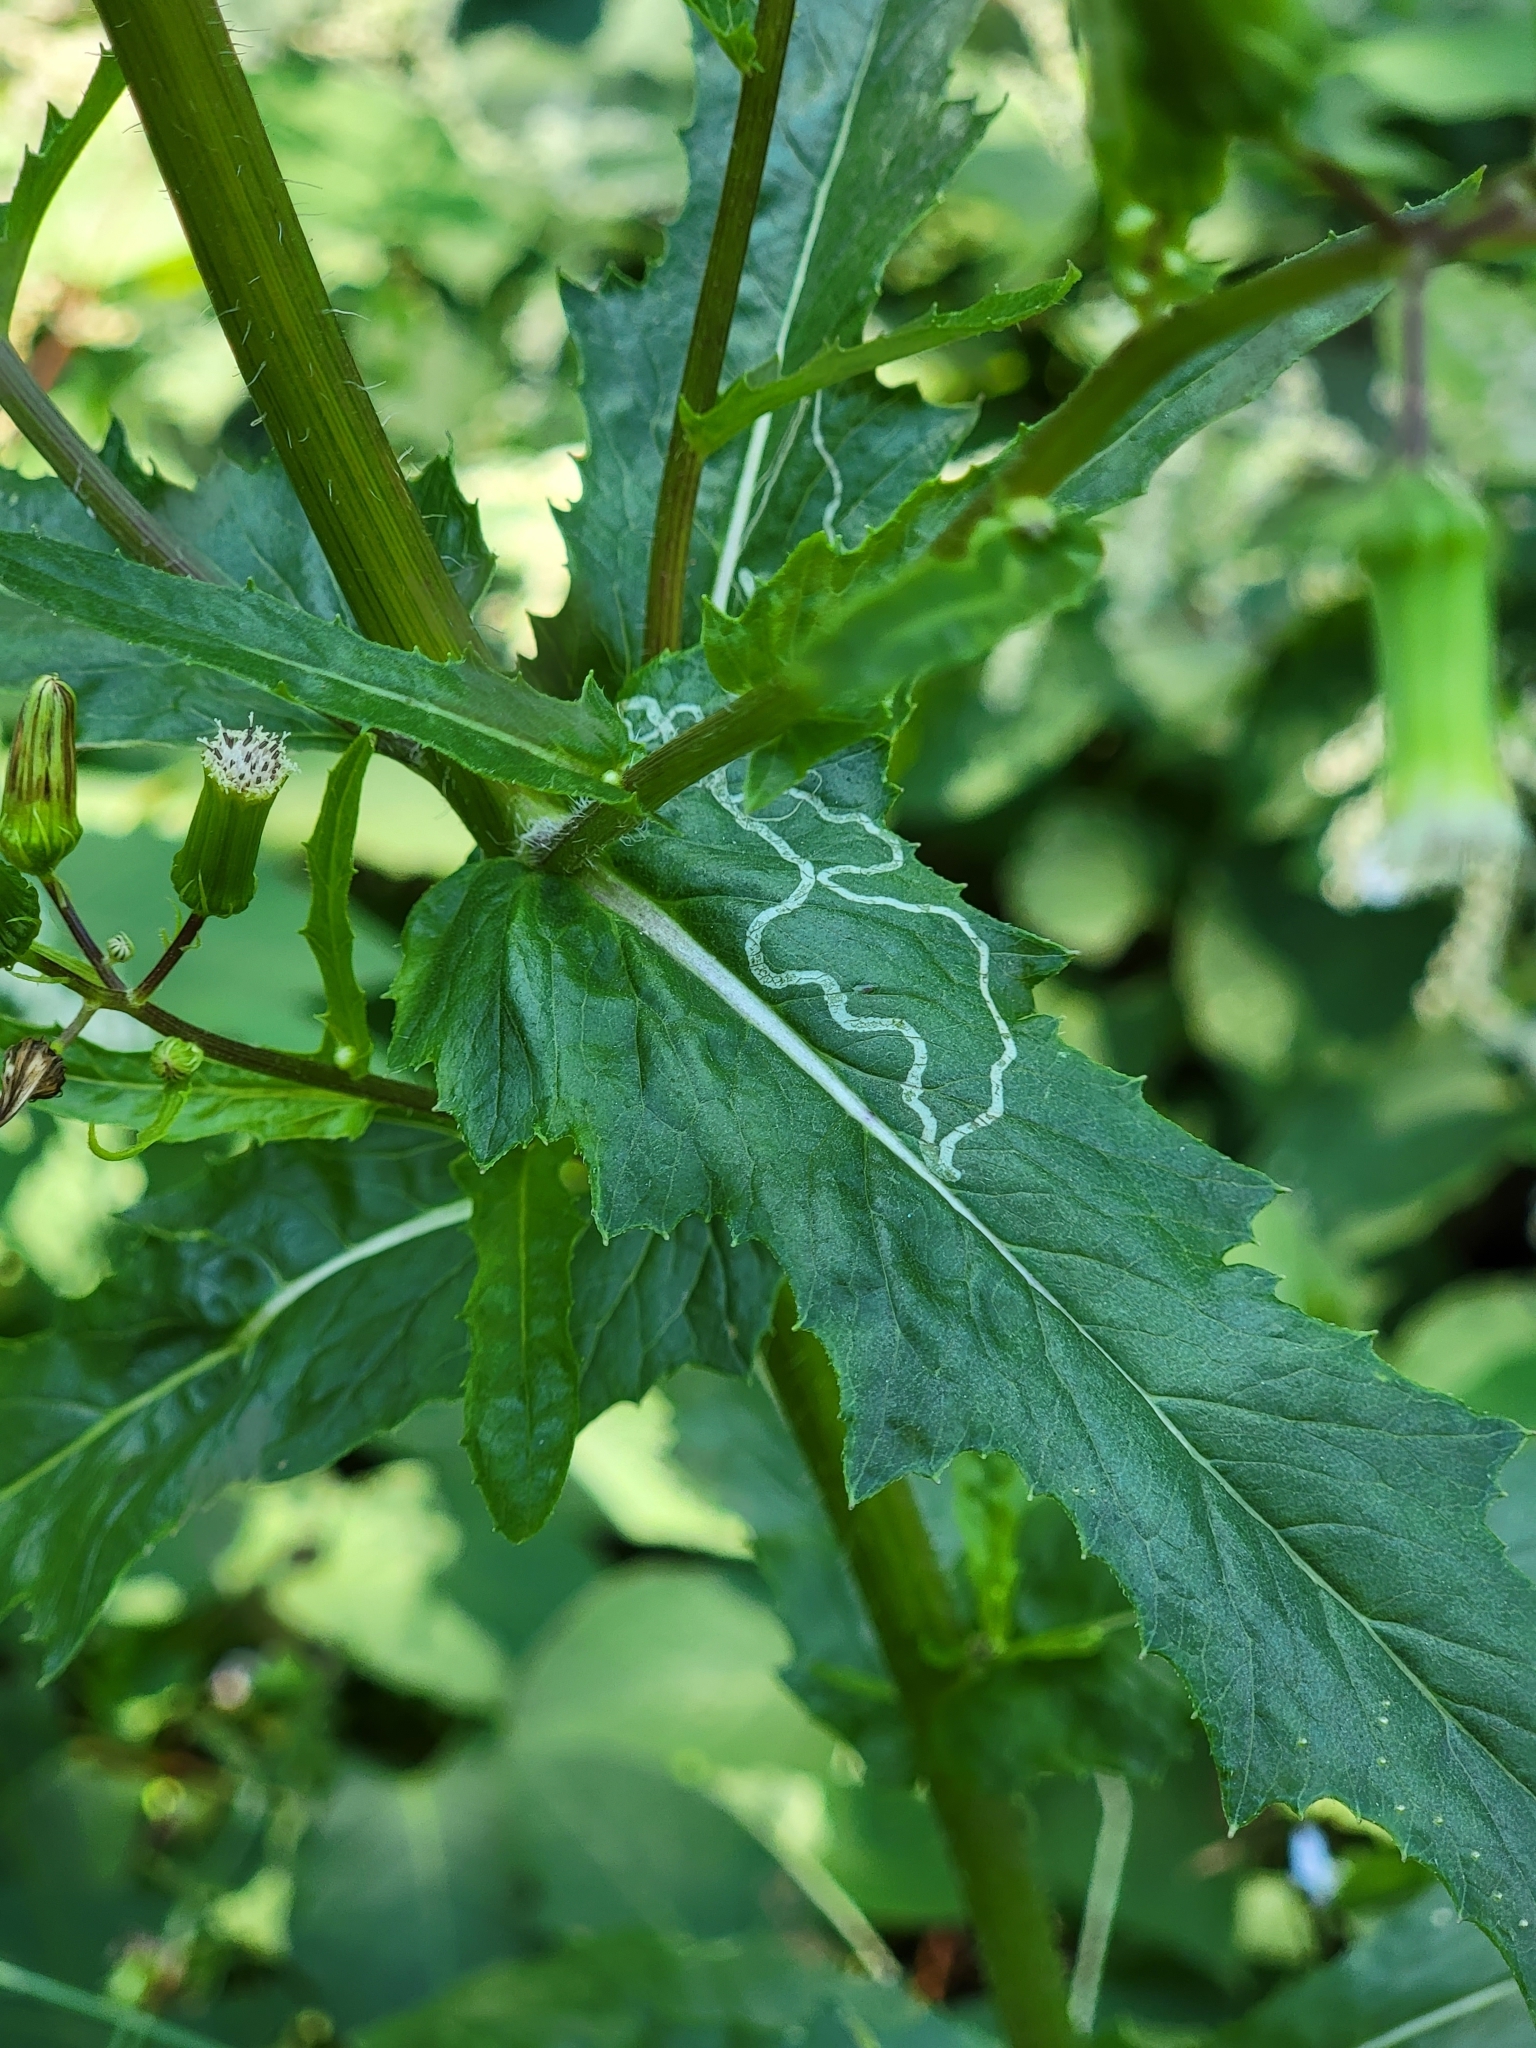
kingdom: Animalia
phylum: Arthropoda
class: Insecta
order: Lepidoptera
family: Gracillariidae
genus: Phyllocnistis
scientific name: Phyllocnistis insignis
